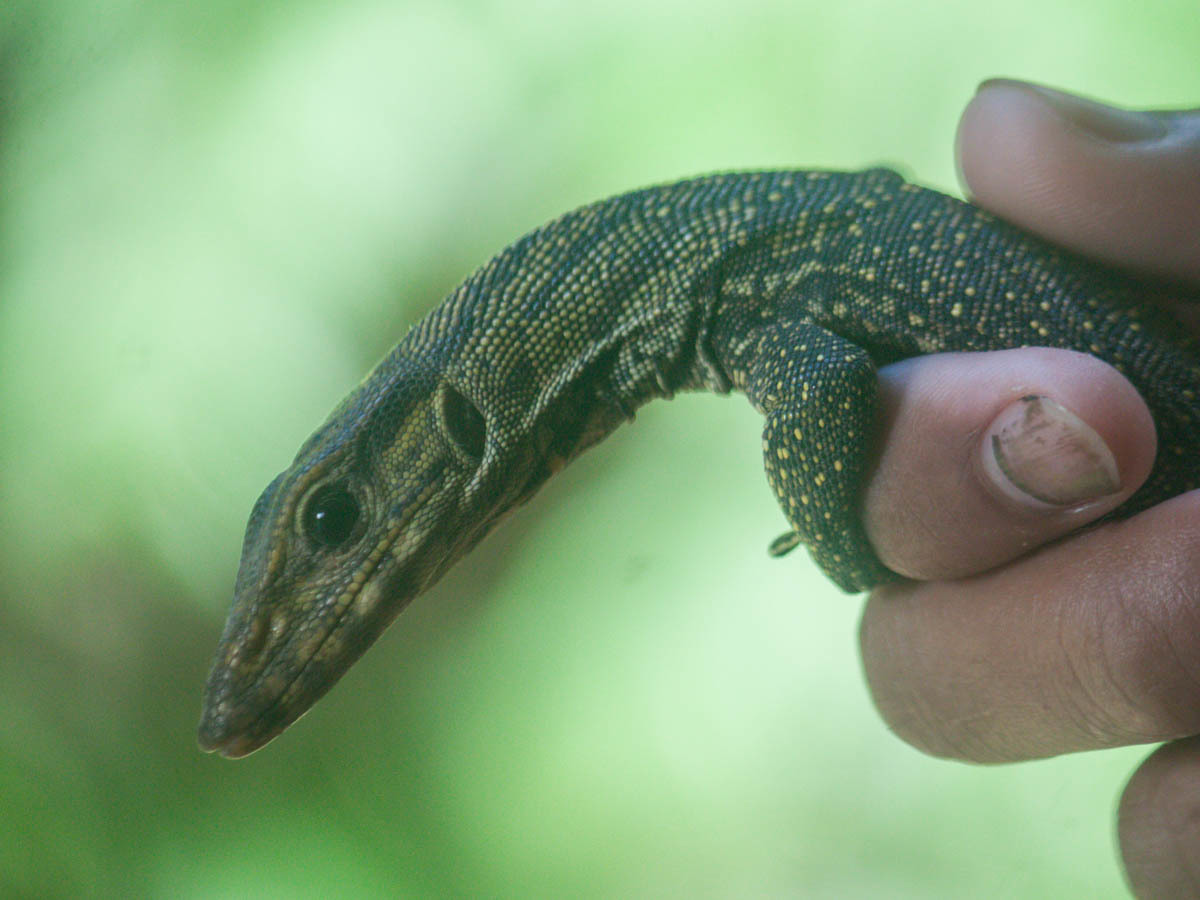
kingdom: Animalia
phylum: Chordata
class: Squamata
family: Varanidae
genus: Varanus
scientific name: Varanus nebulosus
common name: Clouded monitor
